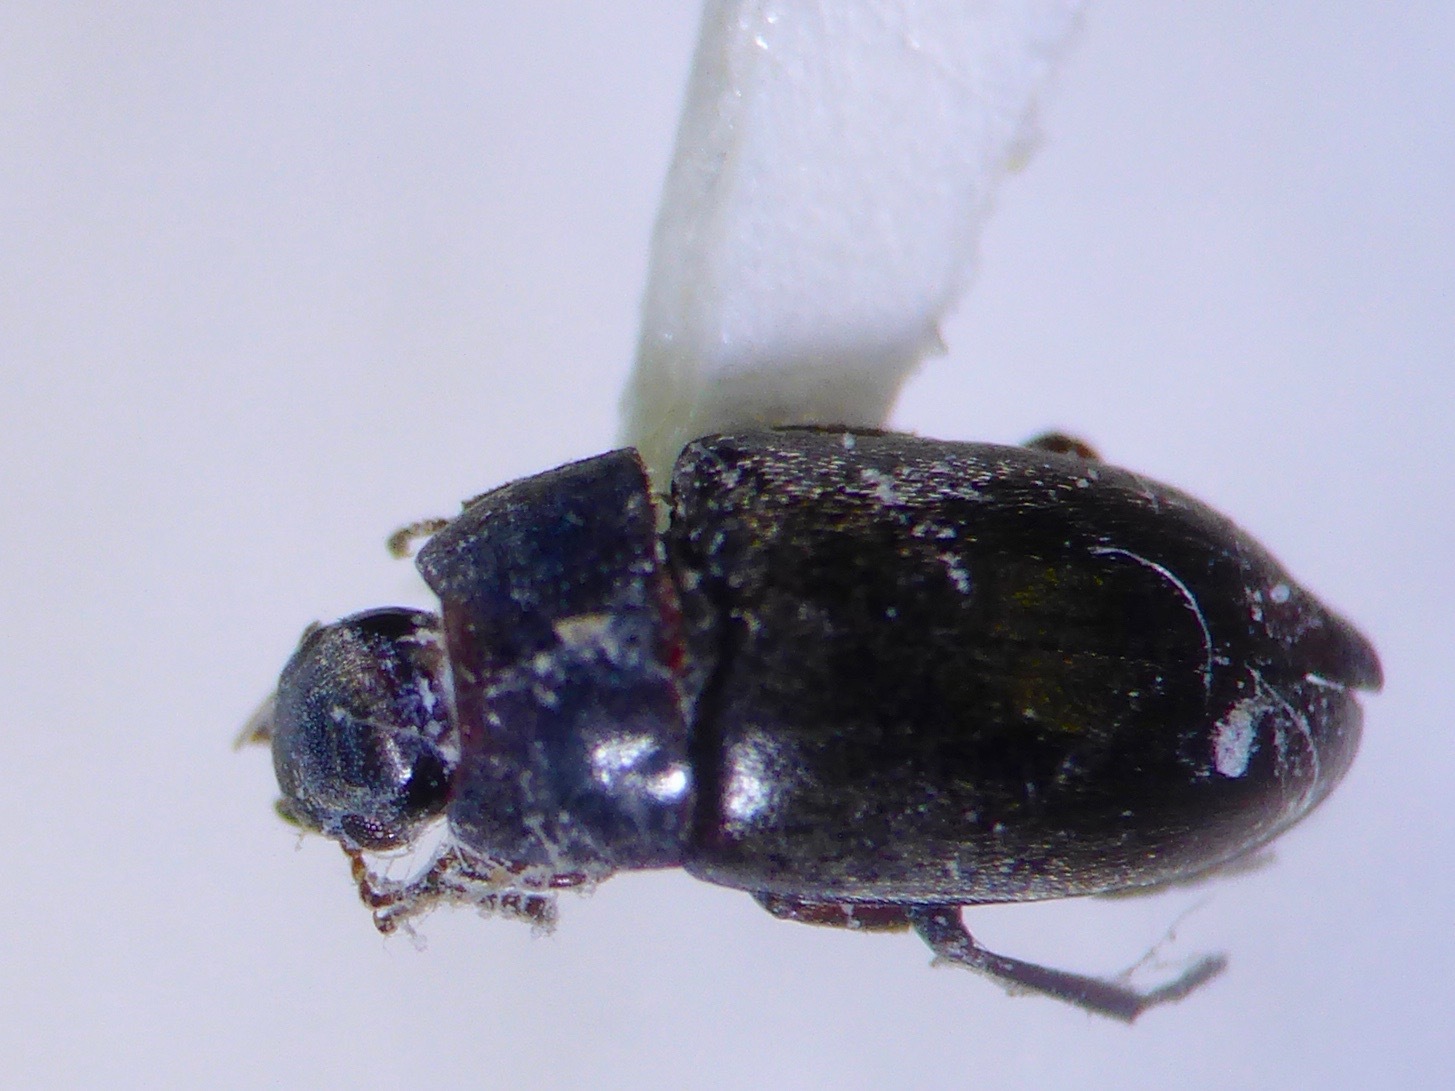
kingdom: Animalia
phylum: Arthropoda
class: Insecta
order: Coleoptera
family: Archeocrypticidae
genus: Enneboeus
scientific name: Enneboeus
